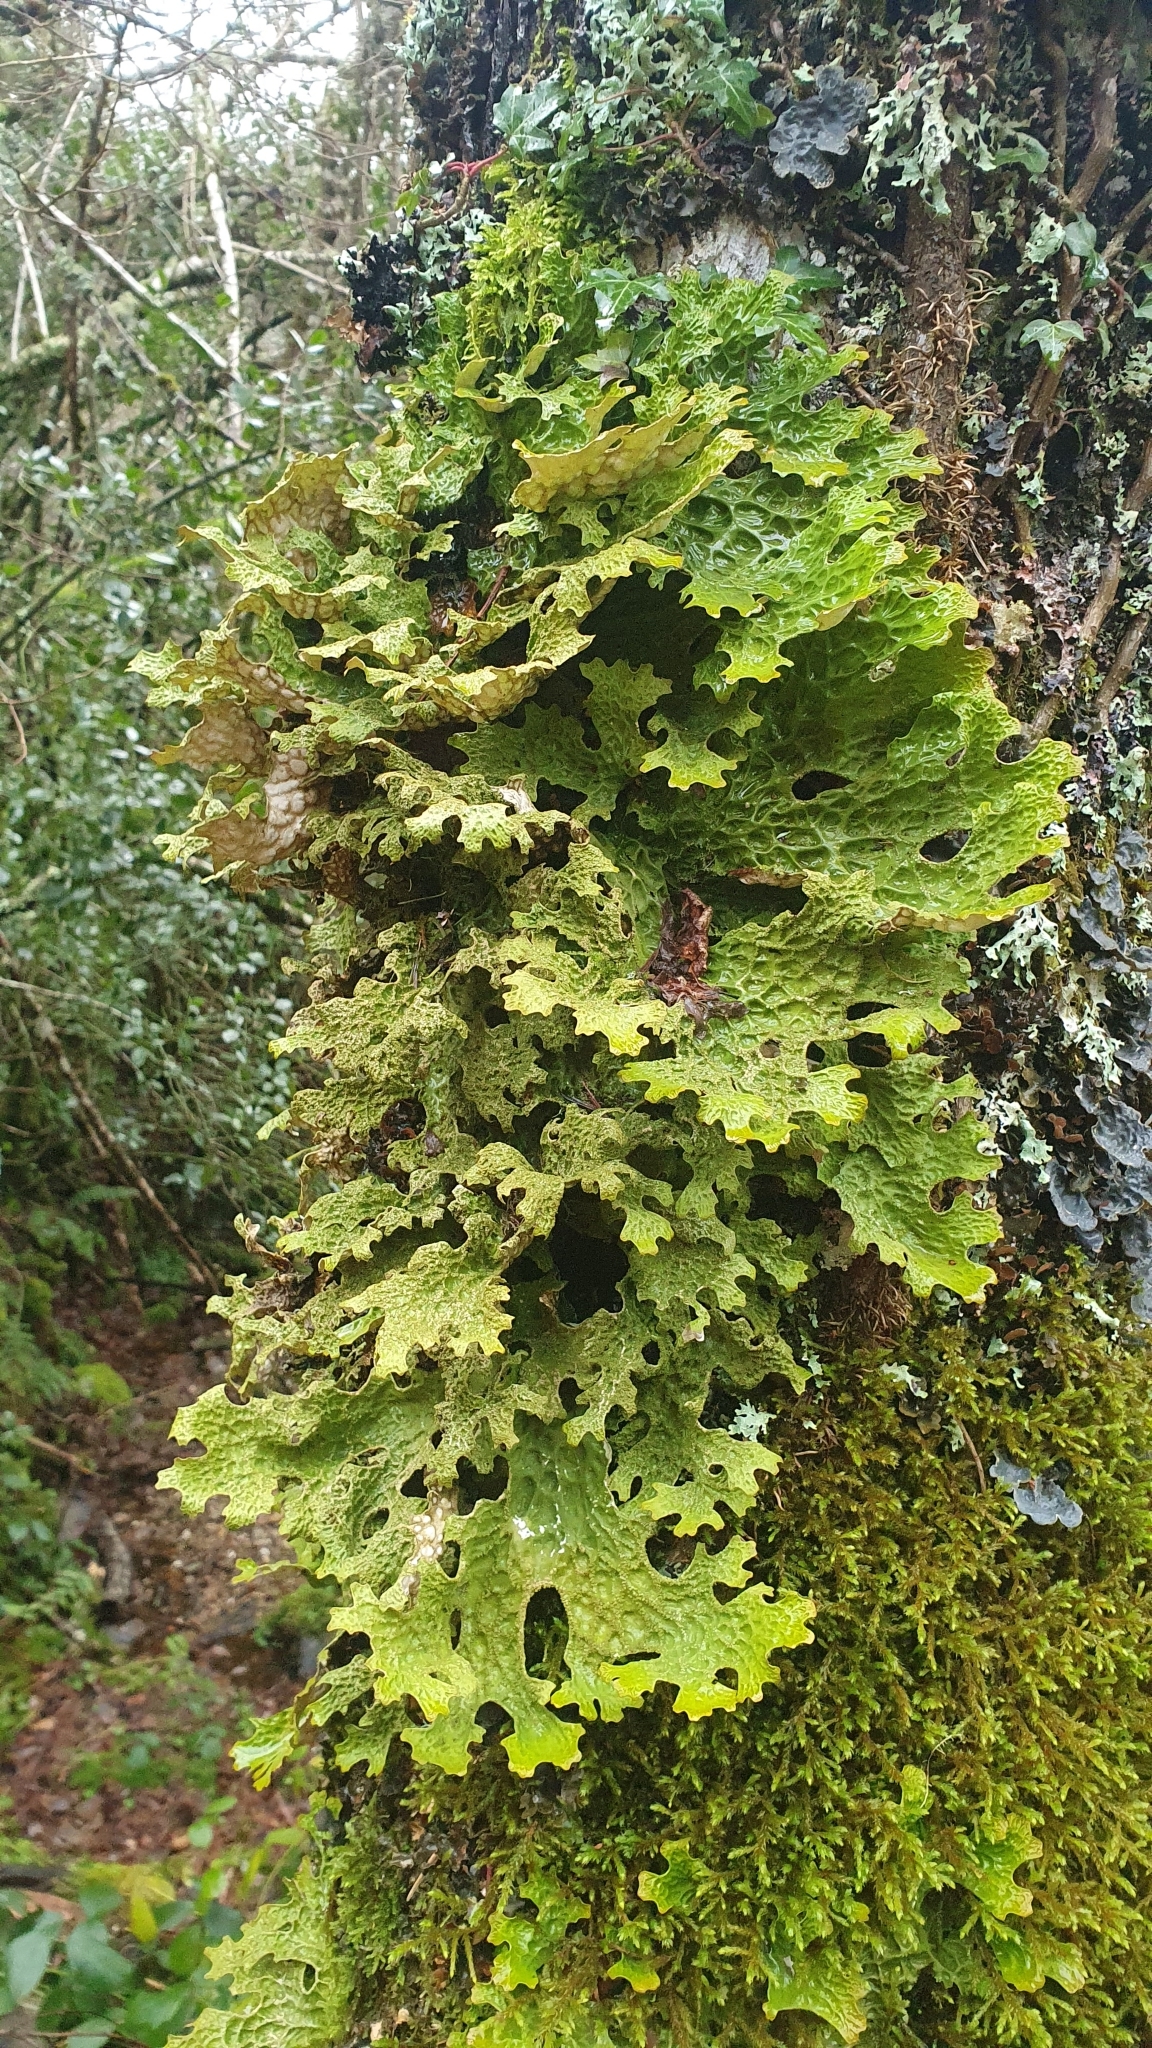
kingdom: Fungi
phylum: Ascomycota
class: Lecanoromycetes
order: Peltigerales
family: Lobariaceae
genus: Lobaria
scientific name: Lobaria pulmonaria
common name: Lungwort
